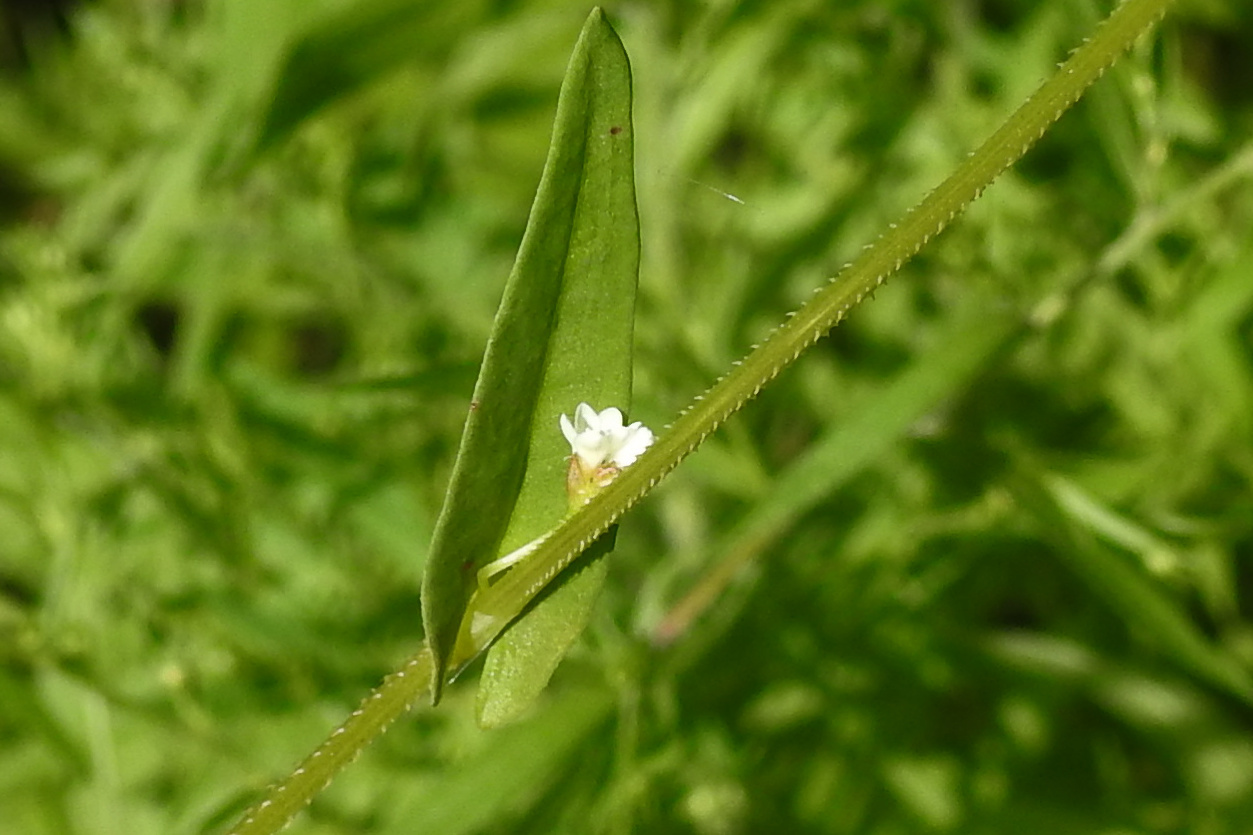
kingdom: Plantae
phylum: Tracheophyta
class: Magnoliopsida
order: Caryophyllales
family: Polygonaceae
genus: Persicaria
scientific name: Persicaria sagittata
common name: American tearthumb
